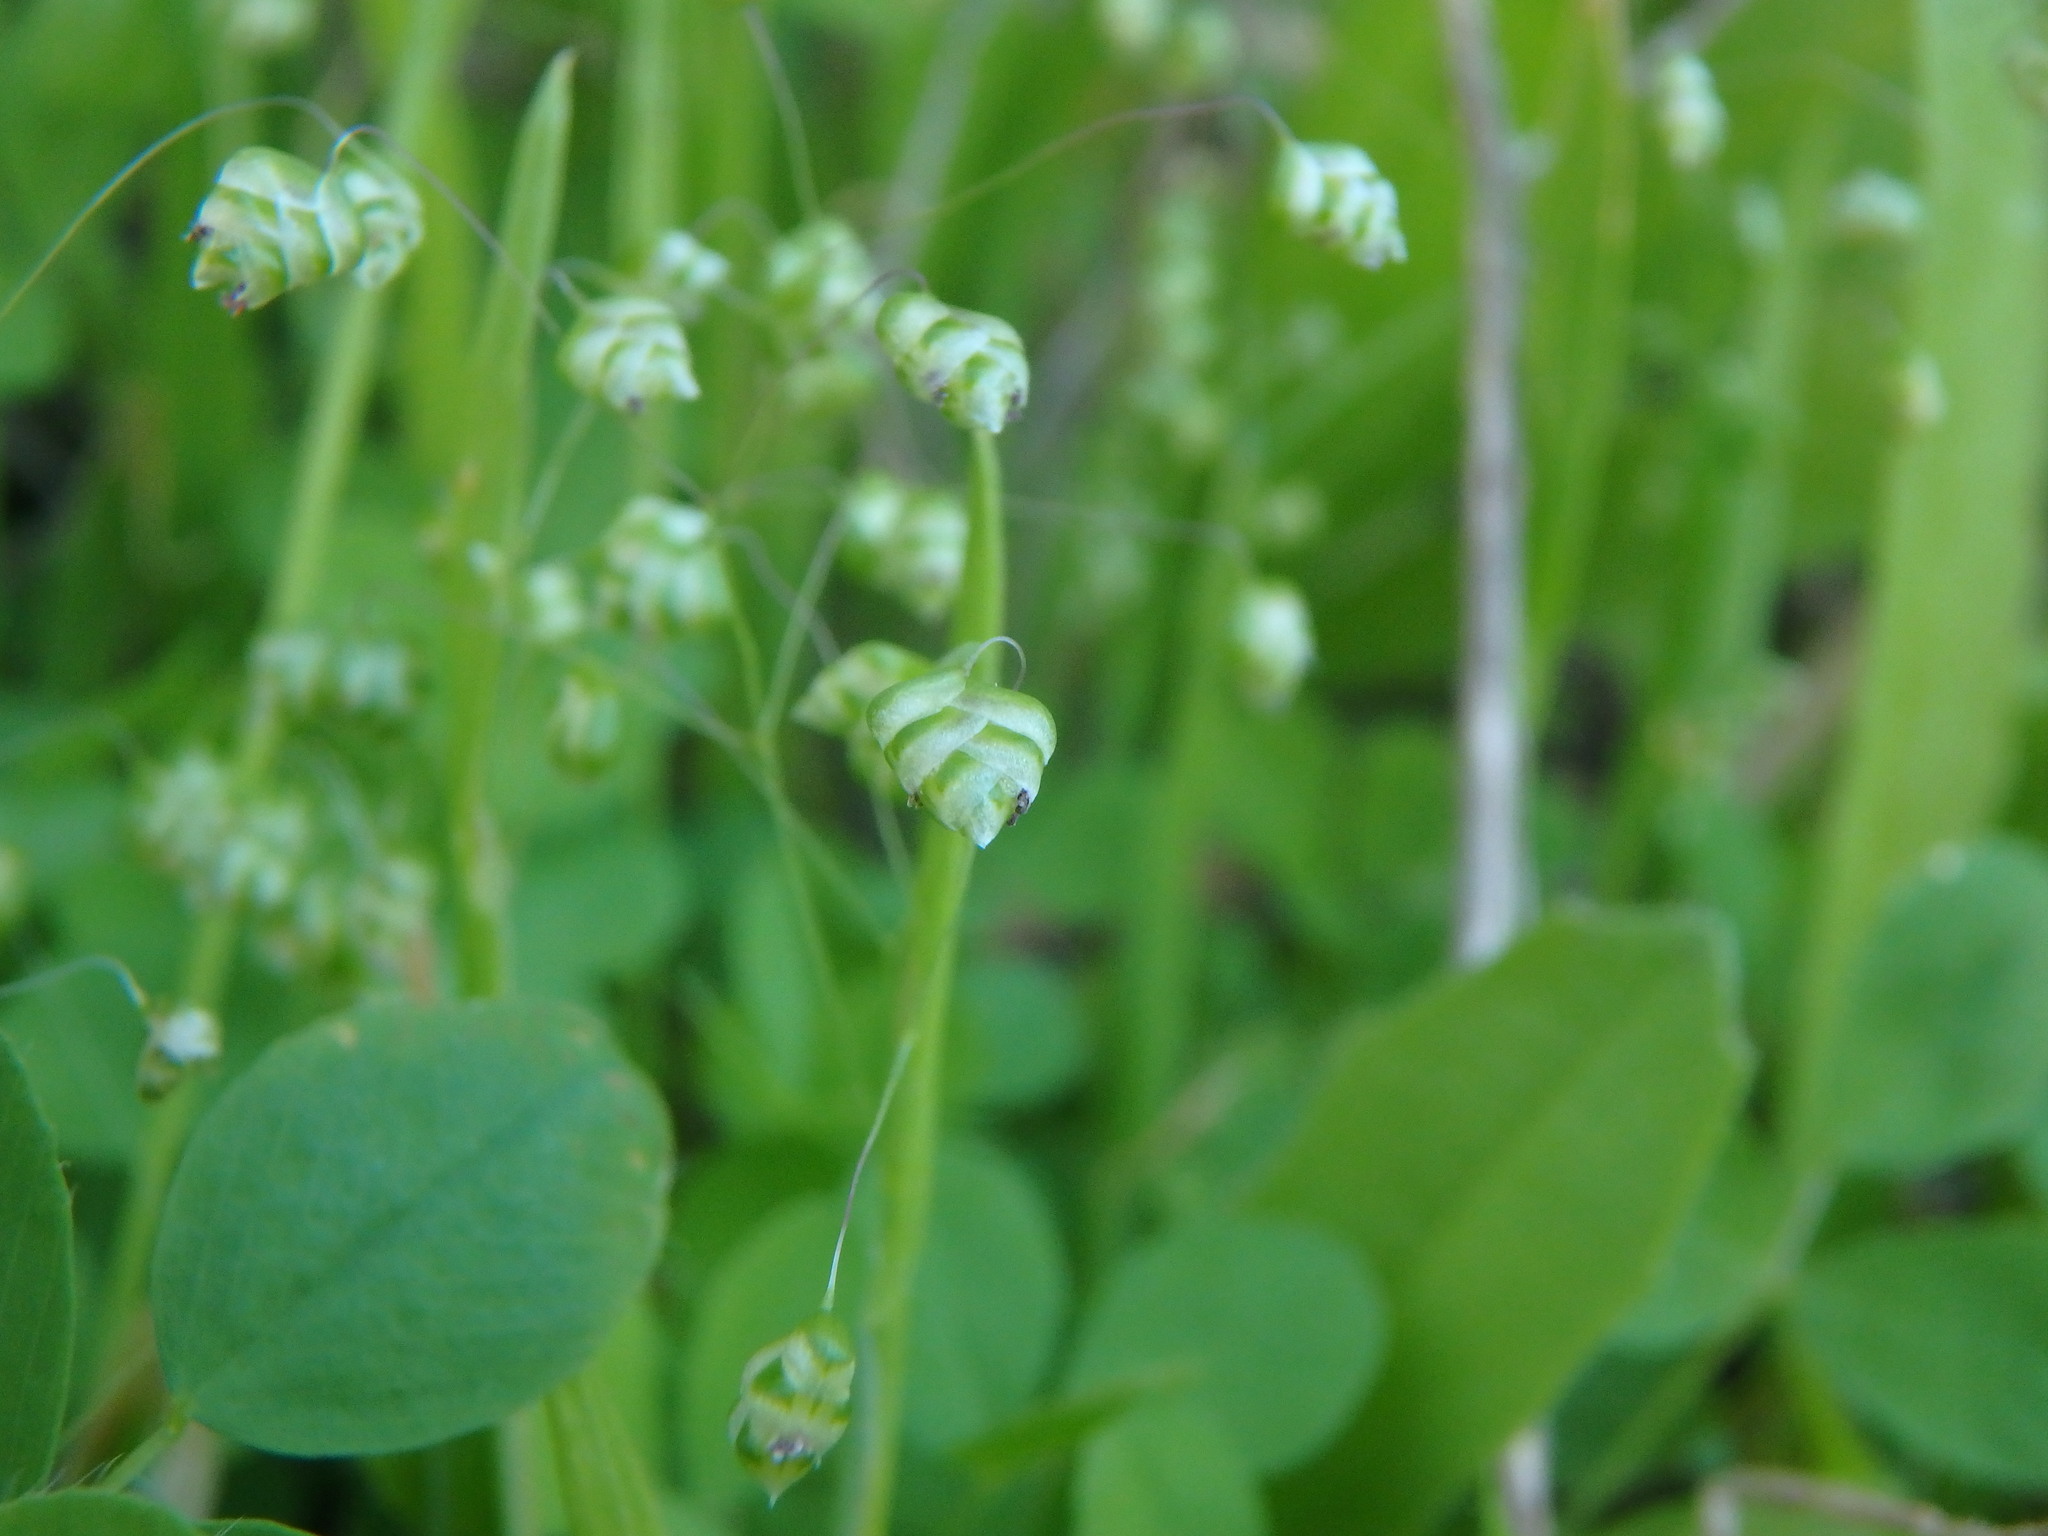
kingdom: Plantae
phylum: Tracheophyta
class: Liliopsida
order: Poales
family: Poaceae
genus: Briza
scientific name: Briza minor
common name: Lesser quaking-grass
